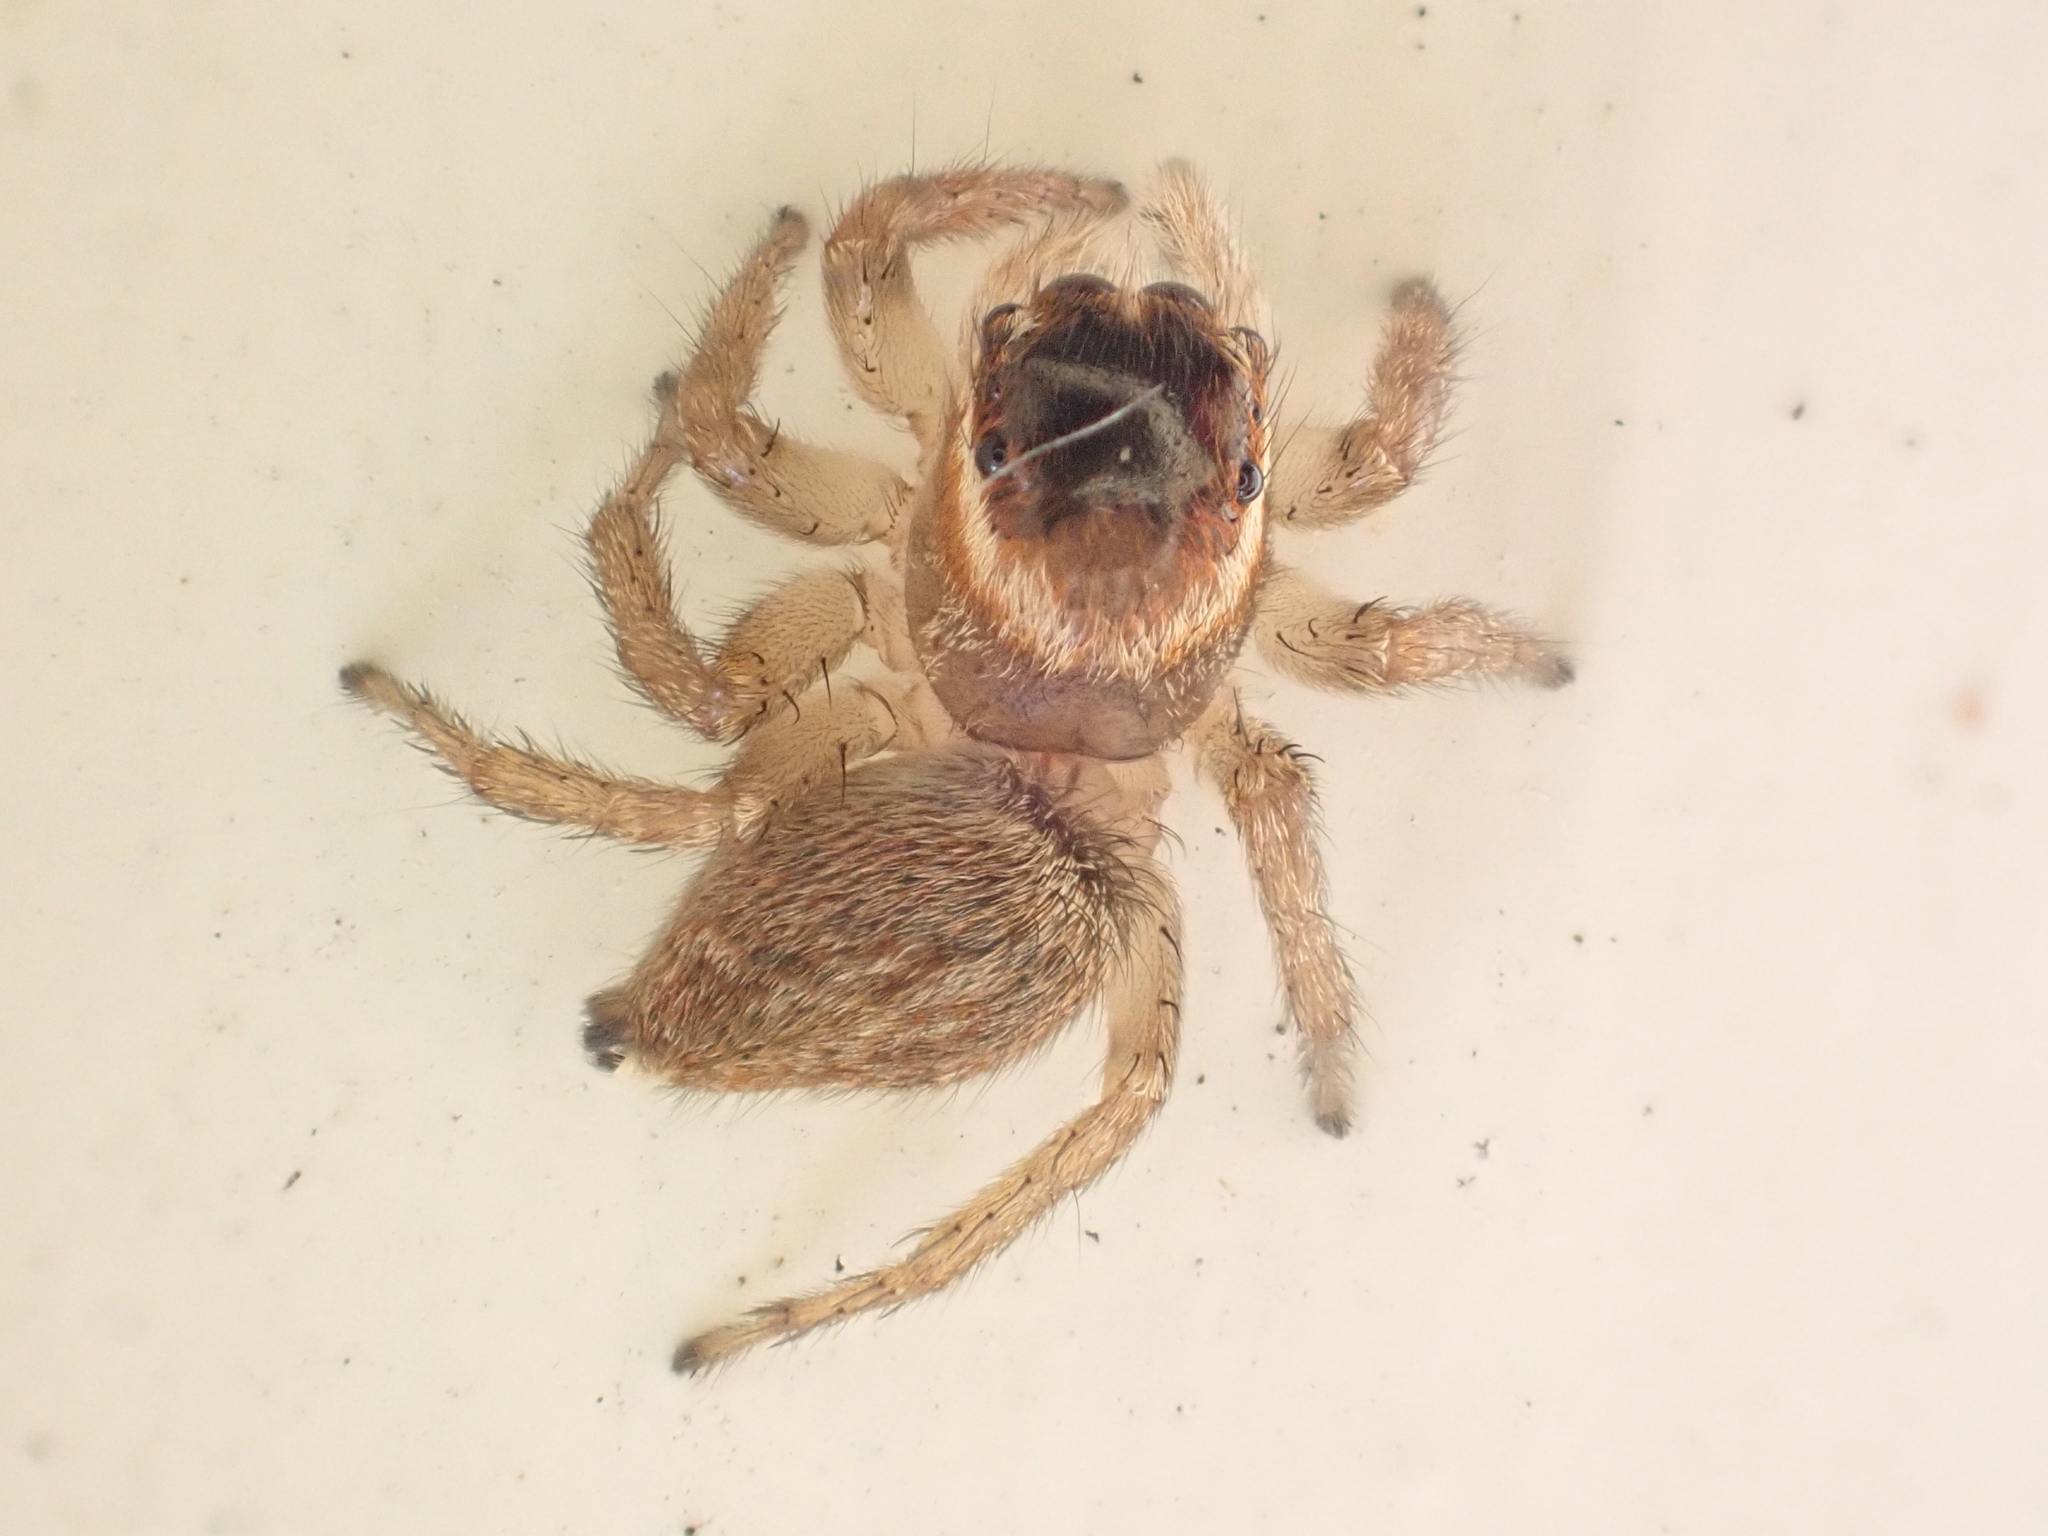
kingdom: Animalia
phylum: Arthropoda
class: Arachnida
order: Araneae
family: Salticidae
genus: Maratus
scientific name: Maratus griseus
